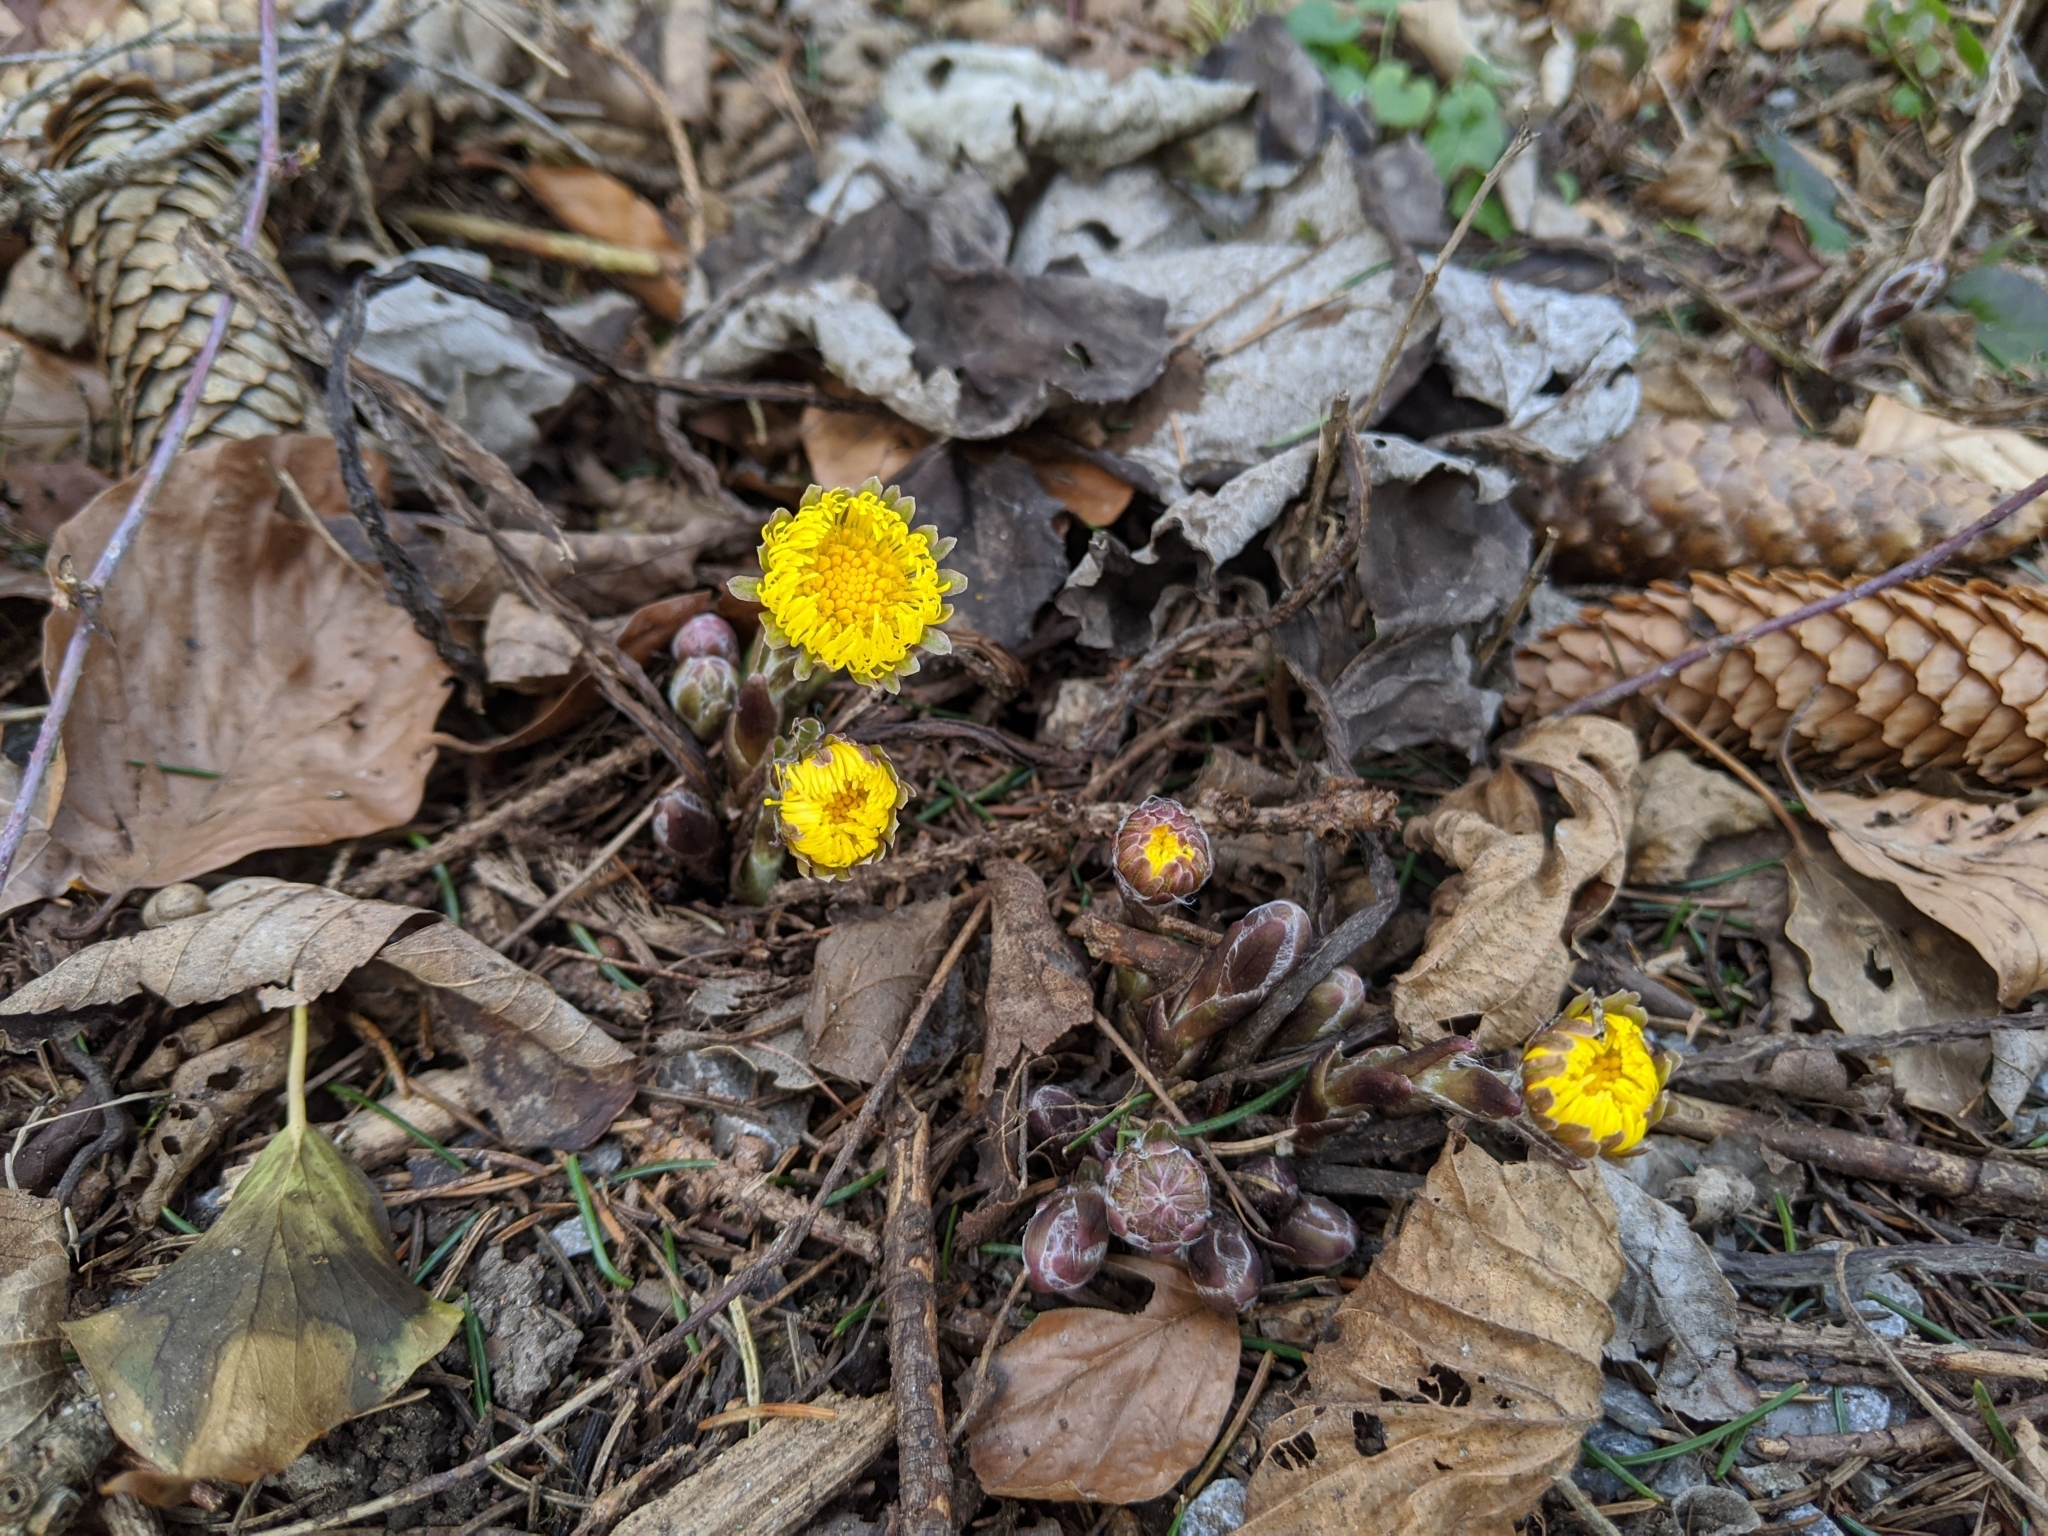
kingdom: Plantae
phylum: Tracheophyta
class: Magnoliopsida
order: Asterales
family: Asteraceae
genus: Tussilago
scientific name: Tussilago farfara
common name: Coltsfoot
